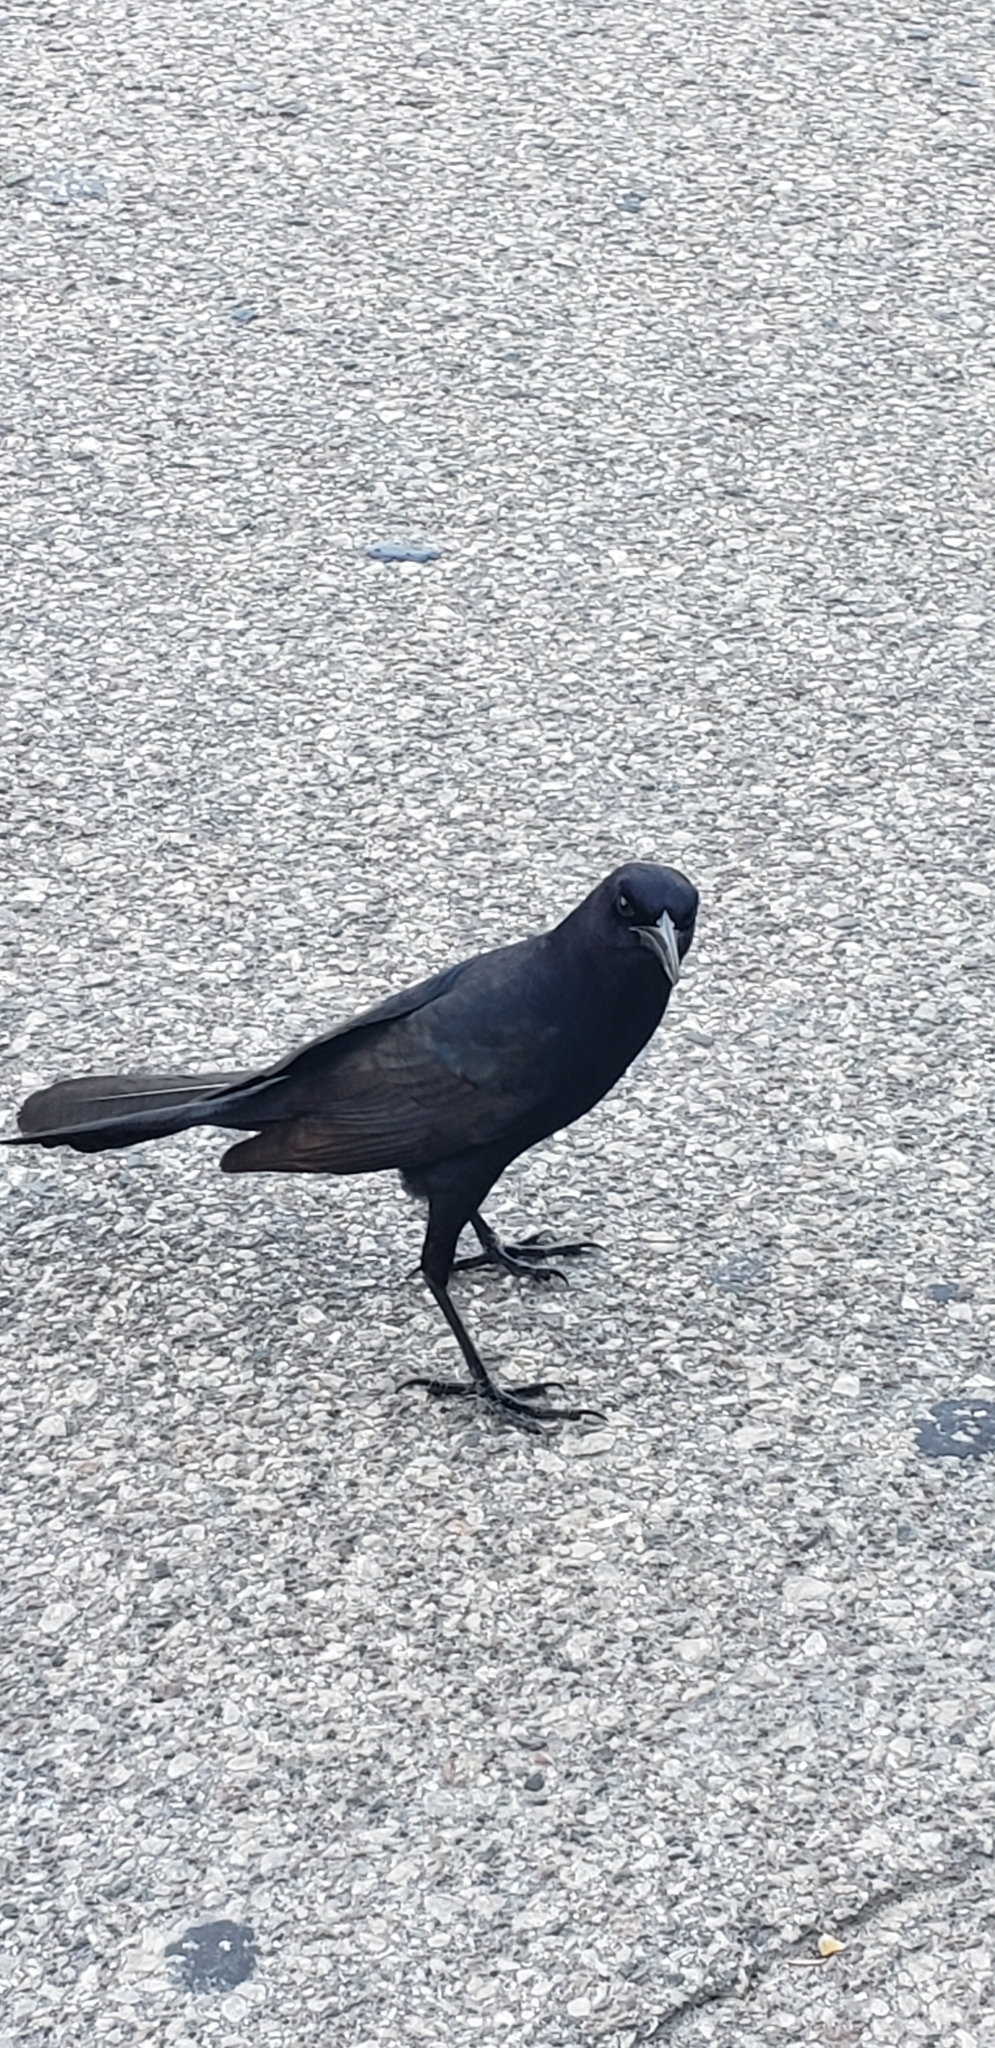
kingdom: Animalia
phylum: Chordata
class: Aves
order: Passeriformes
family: Icteridae
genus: Quiscalus
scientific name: Quiscalus major
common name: Boat-tailed grackle
